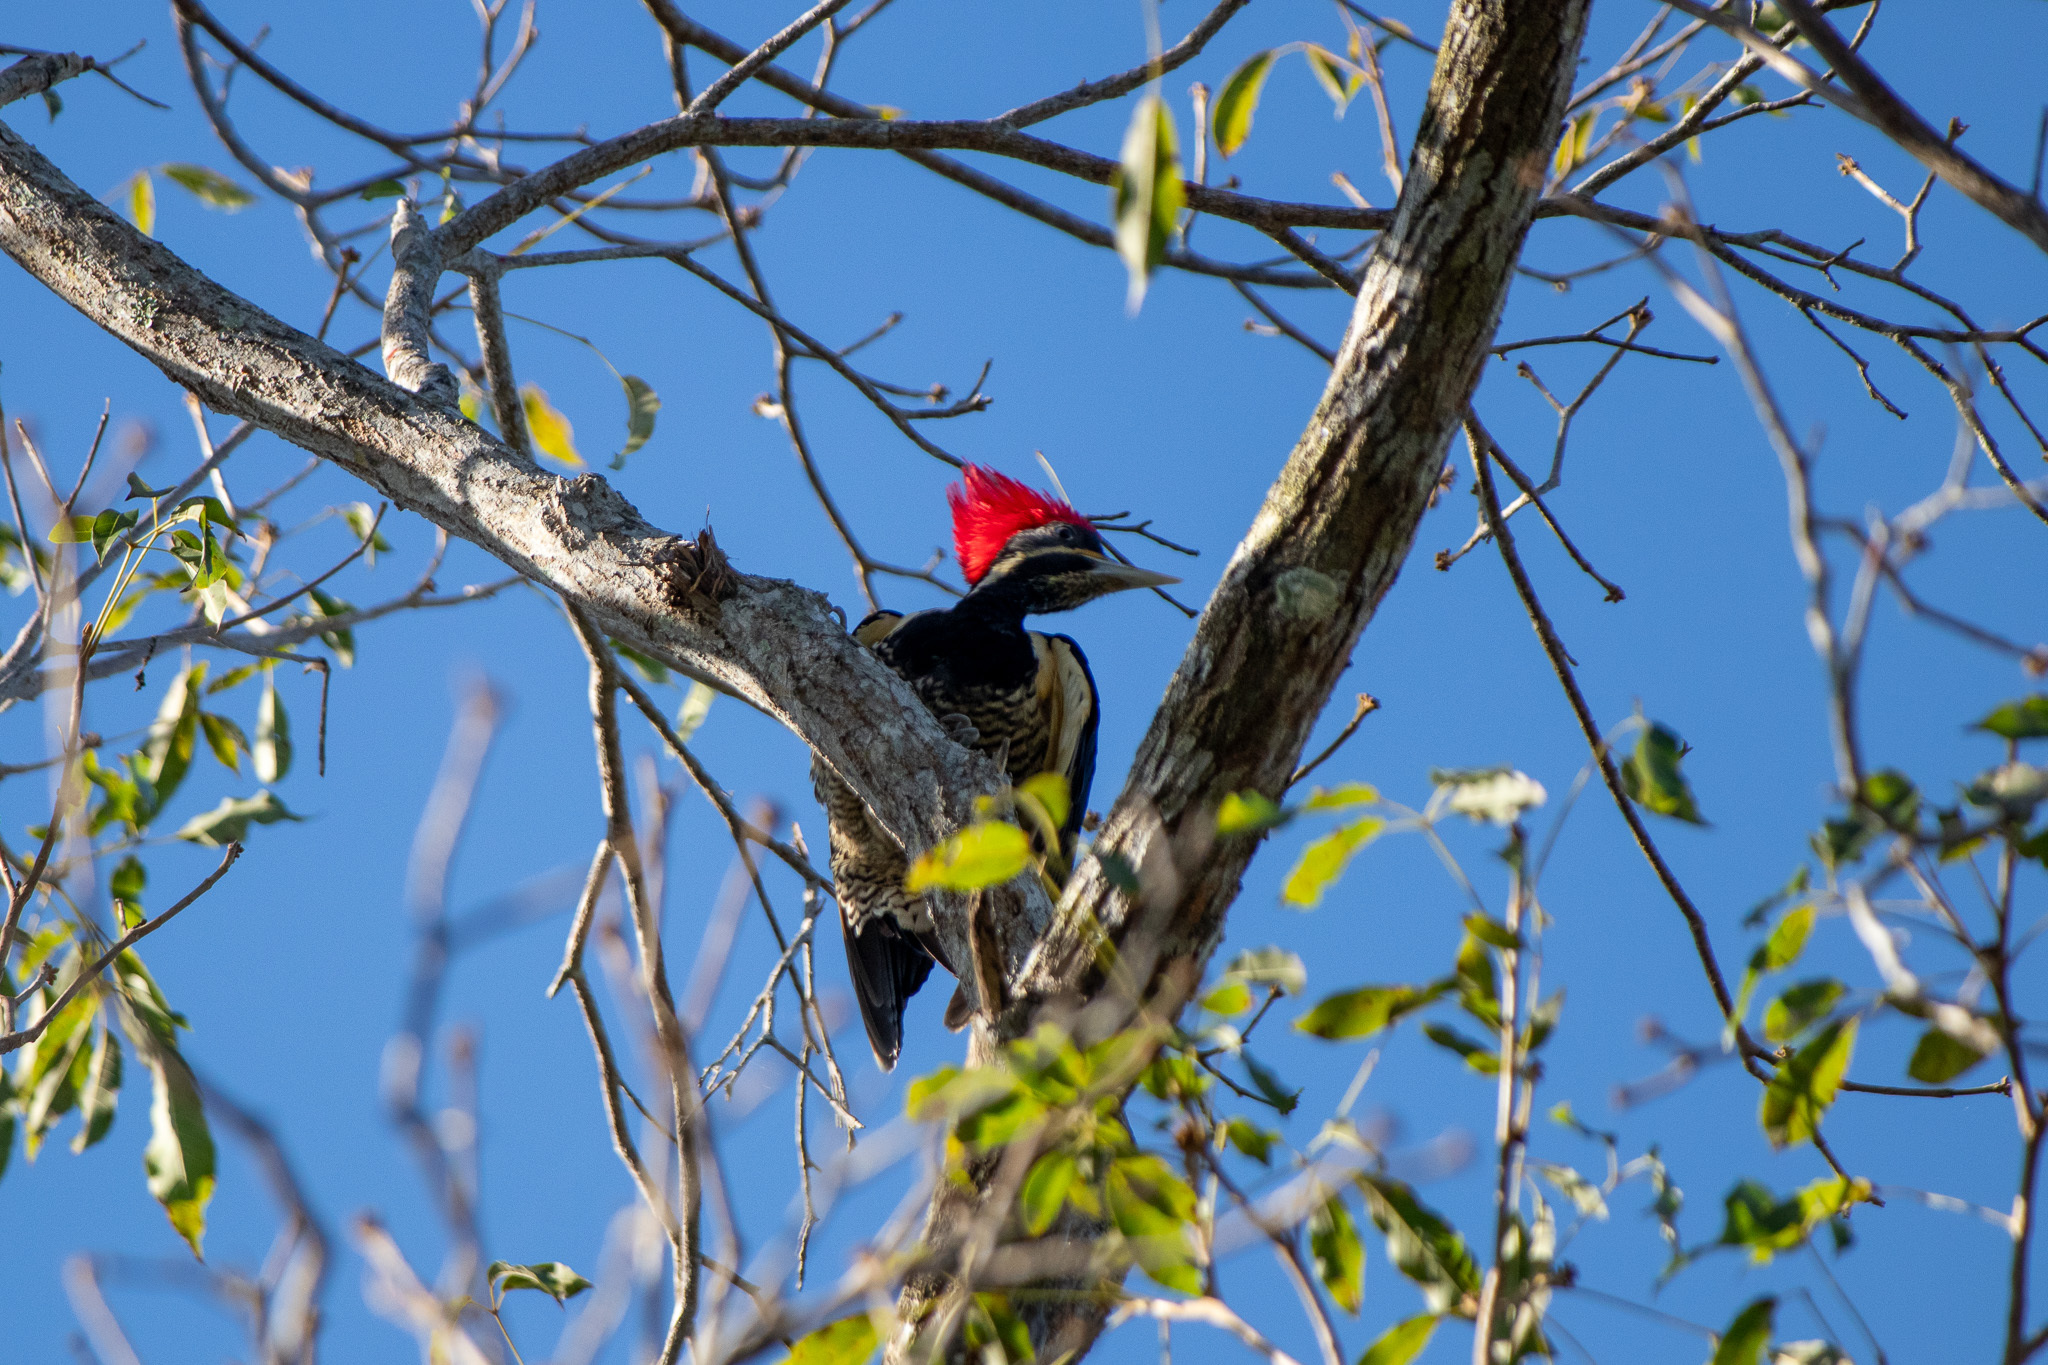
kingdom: Animalia
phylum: Chordata
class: Aves
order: Piciformes
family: Picidae
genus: Dryocopus
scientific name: Dryocopus lineatus
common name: Lineated woodpecker
